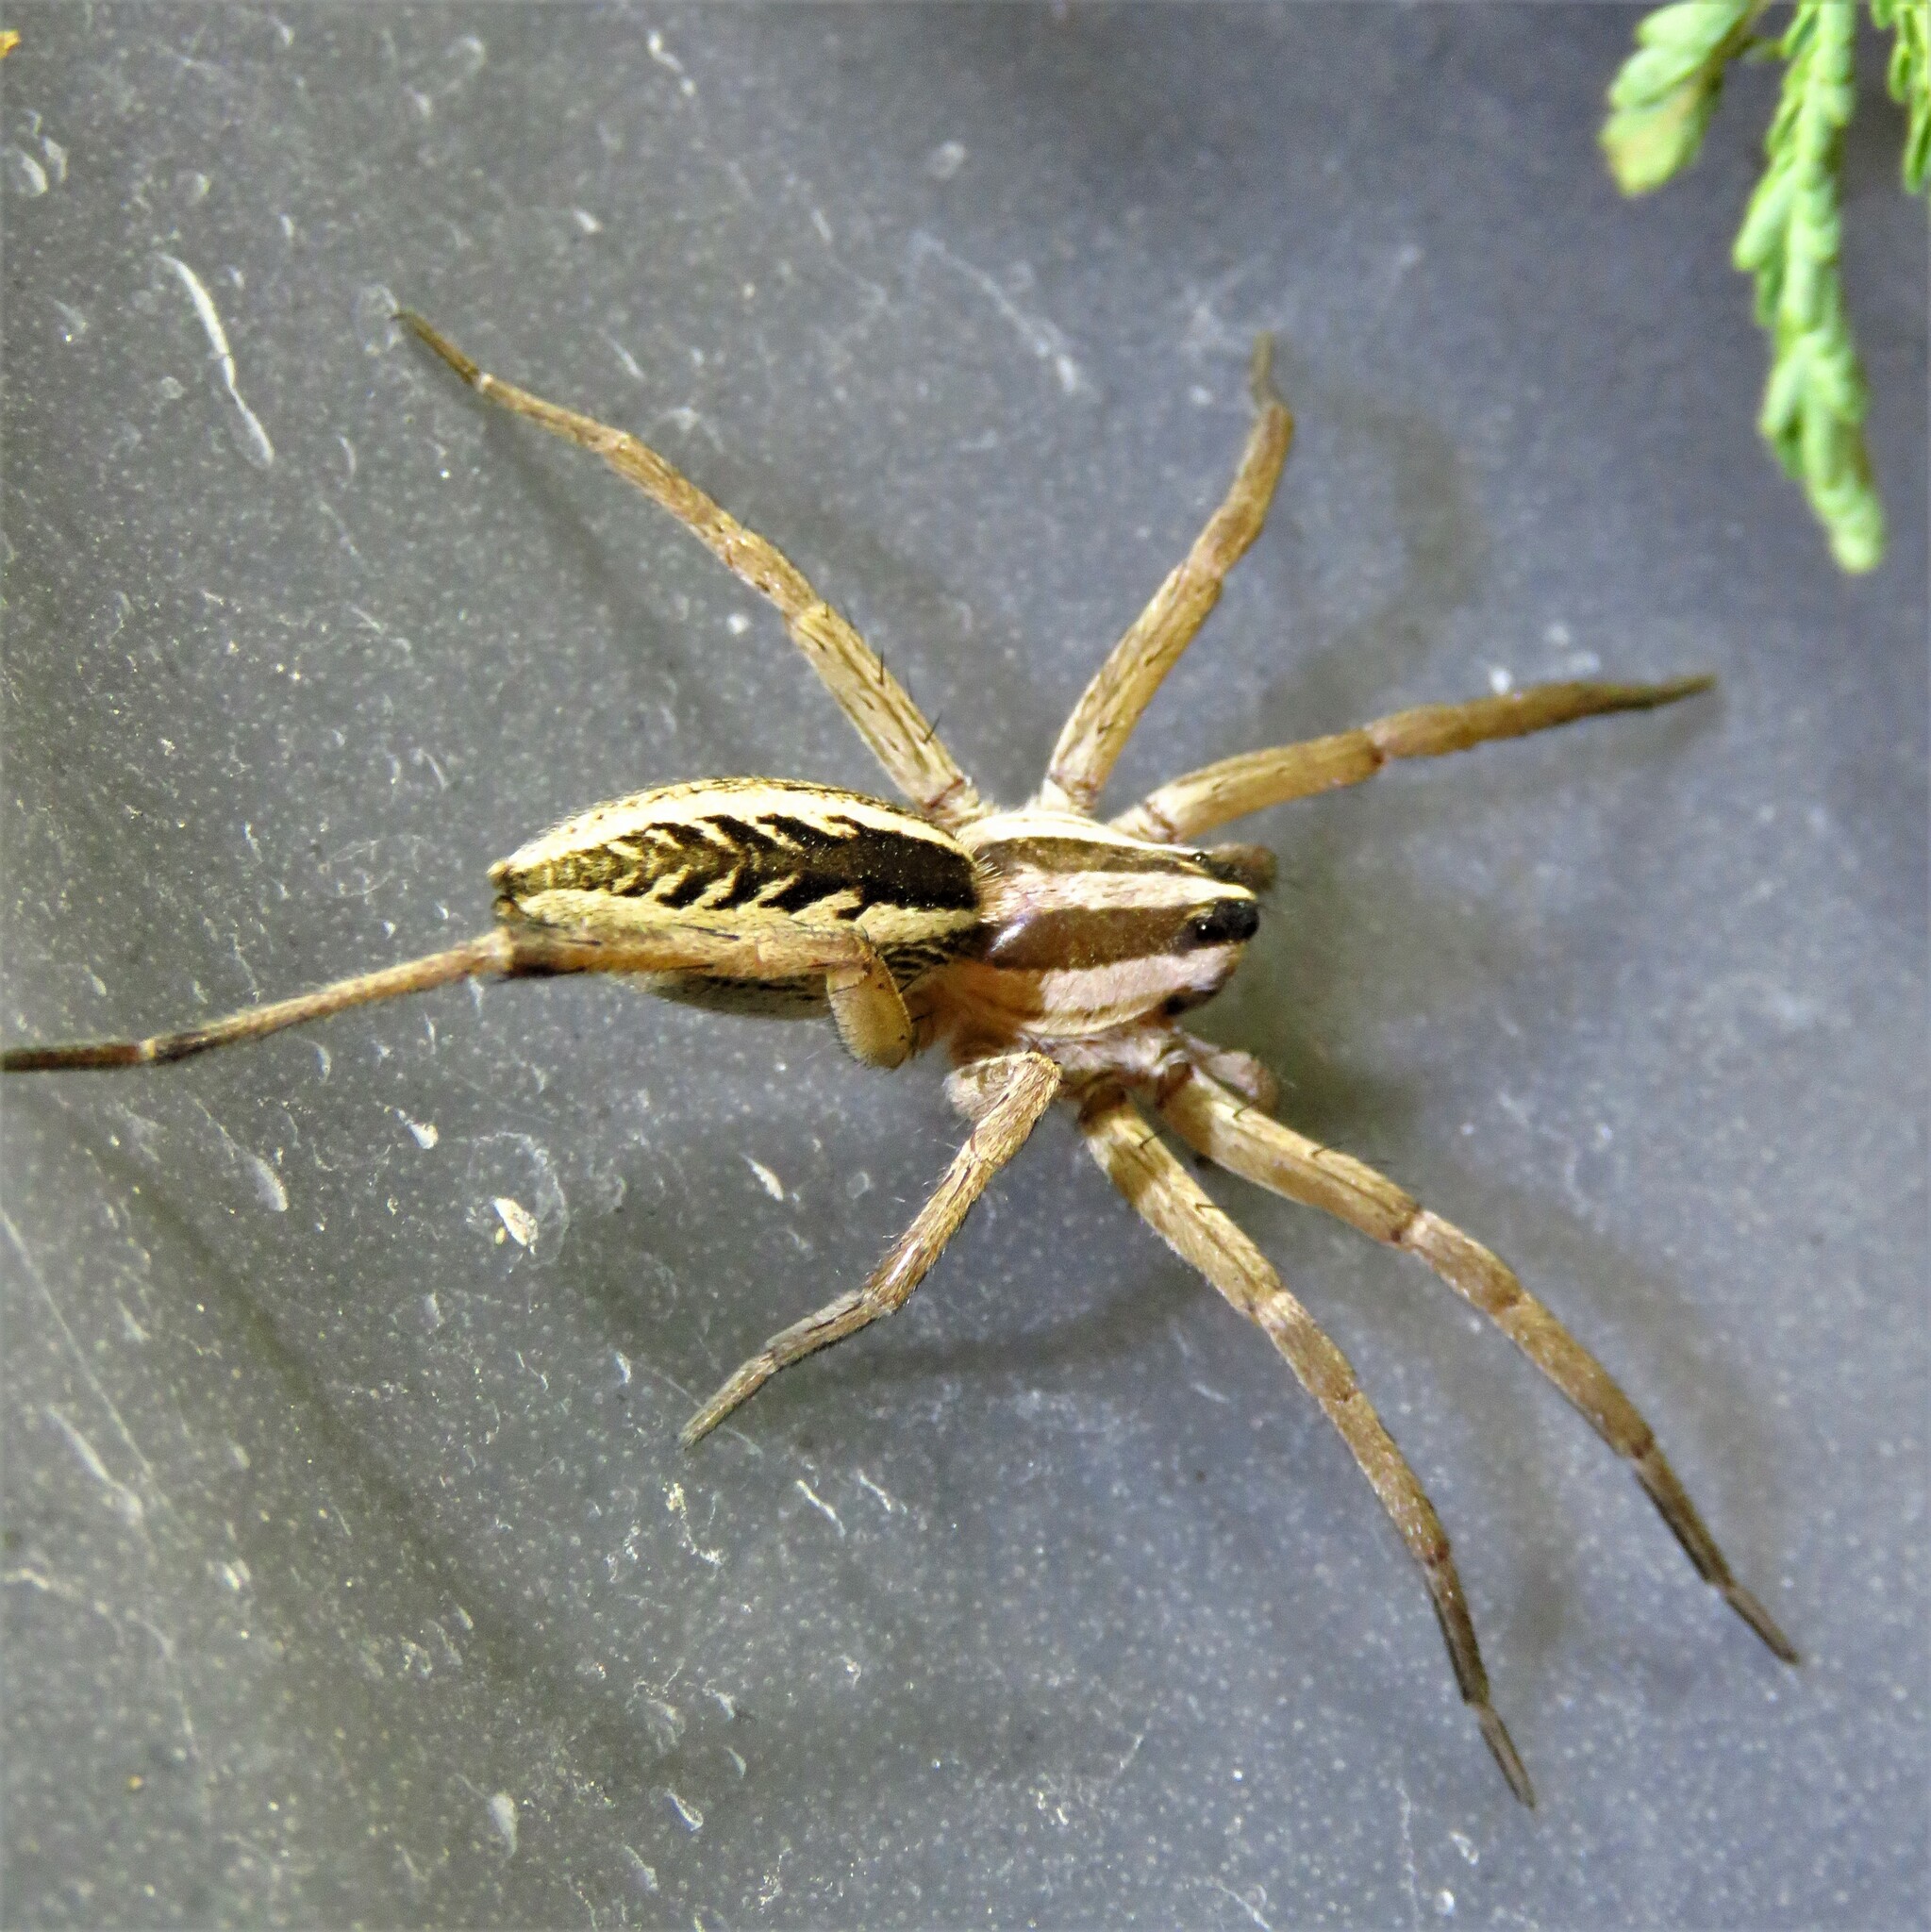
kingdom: Animalia
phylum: Arthropoda
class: Arachnida
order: Araneae
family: Lycosidae
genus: Rabidosa
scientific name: Rabidosa rabida
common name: Rabid wolf spider
